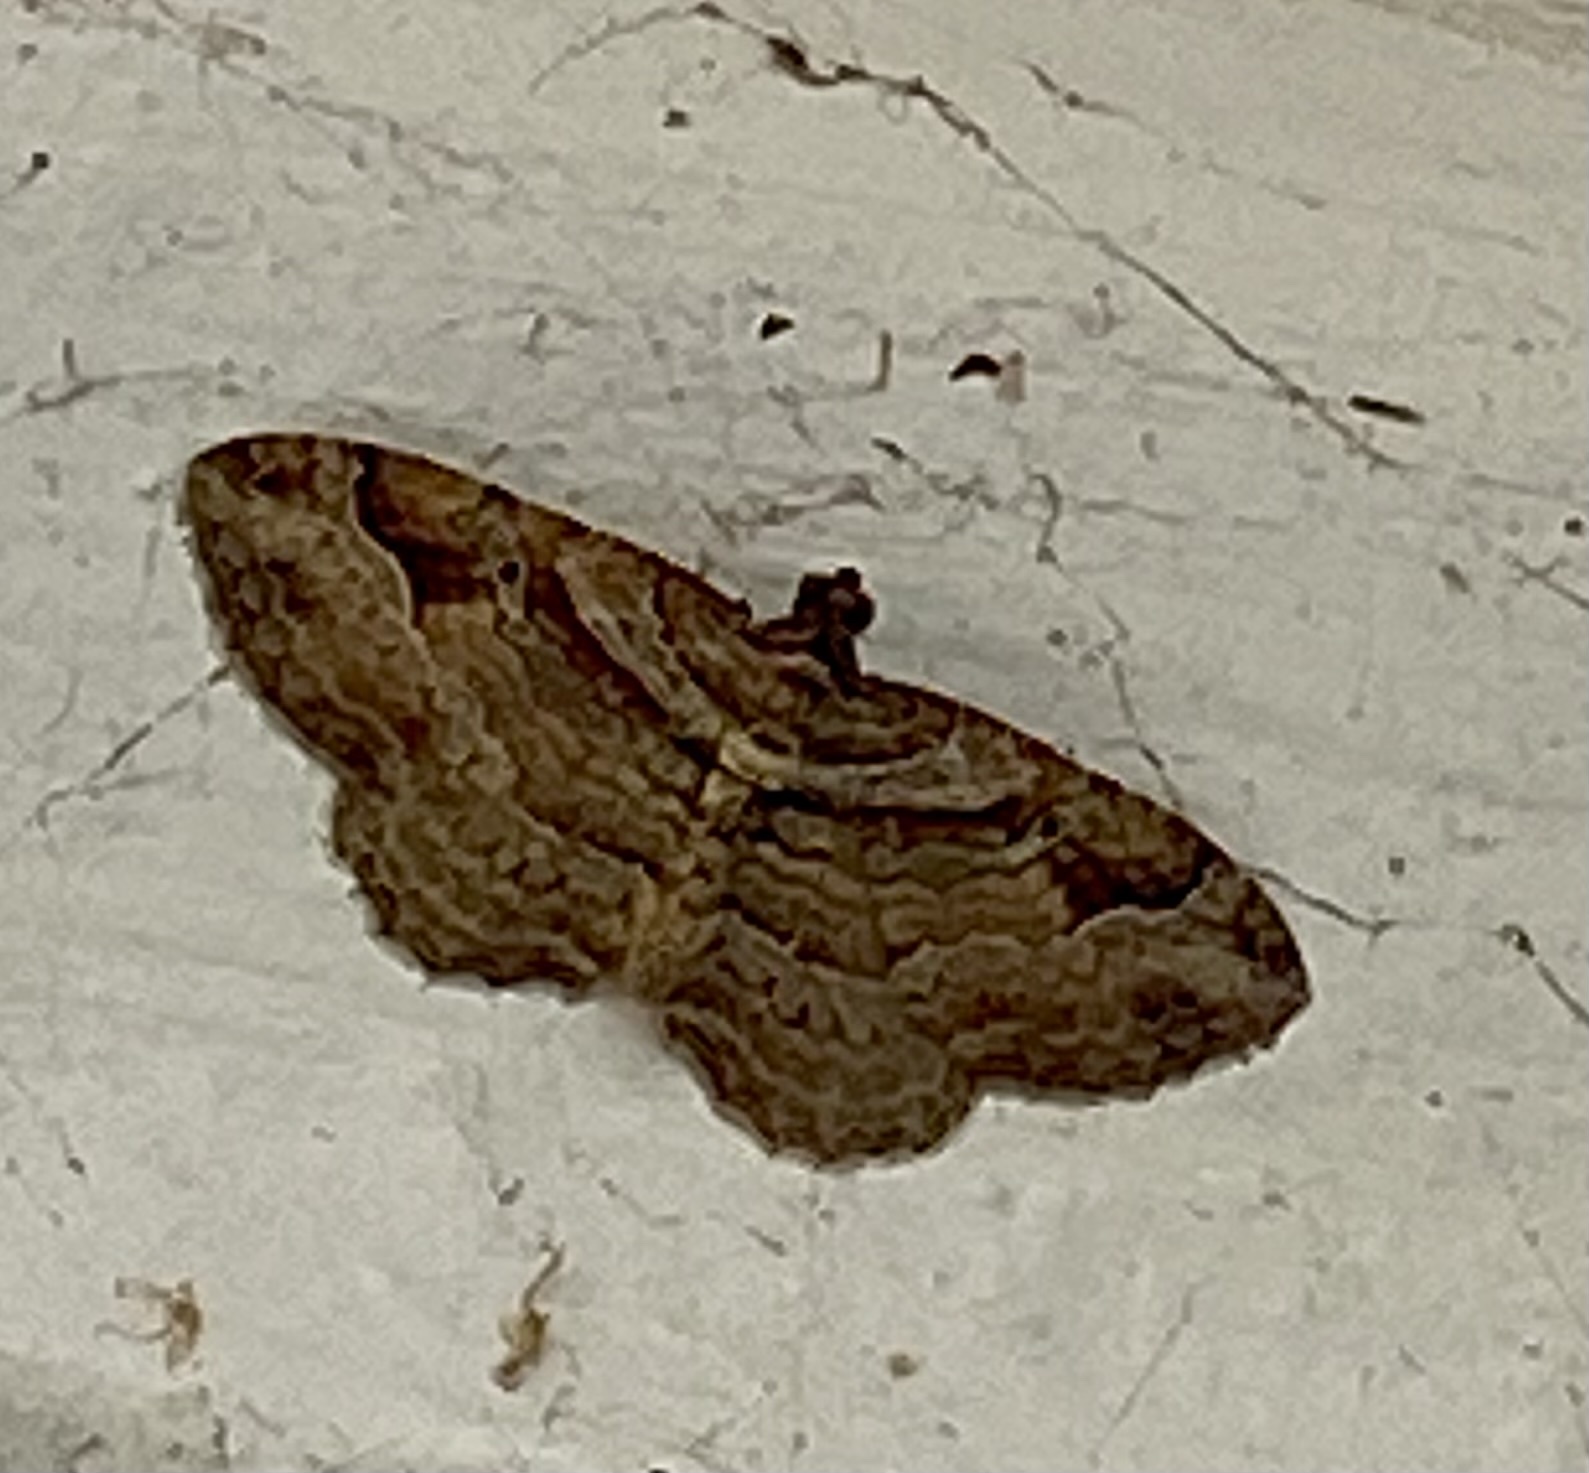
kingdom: Animalia
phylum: Arthropoda
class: Insecta
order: Lepidoptera
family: Geometridae
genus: Costaconvexa
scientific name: Costaconvexa centrostrigaria
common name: Bent-line carpet
